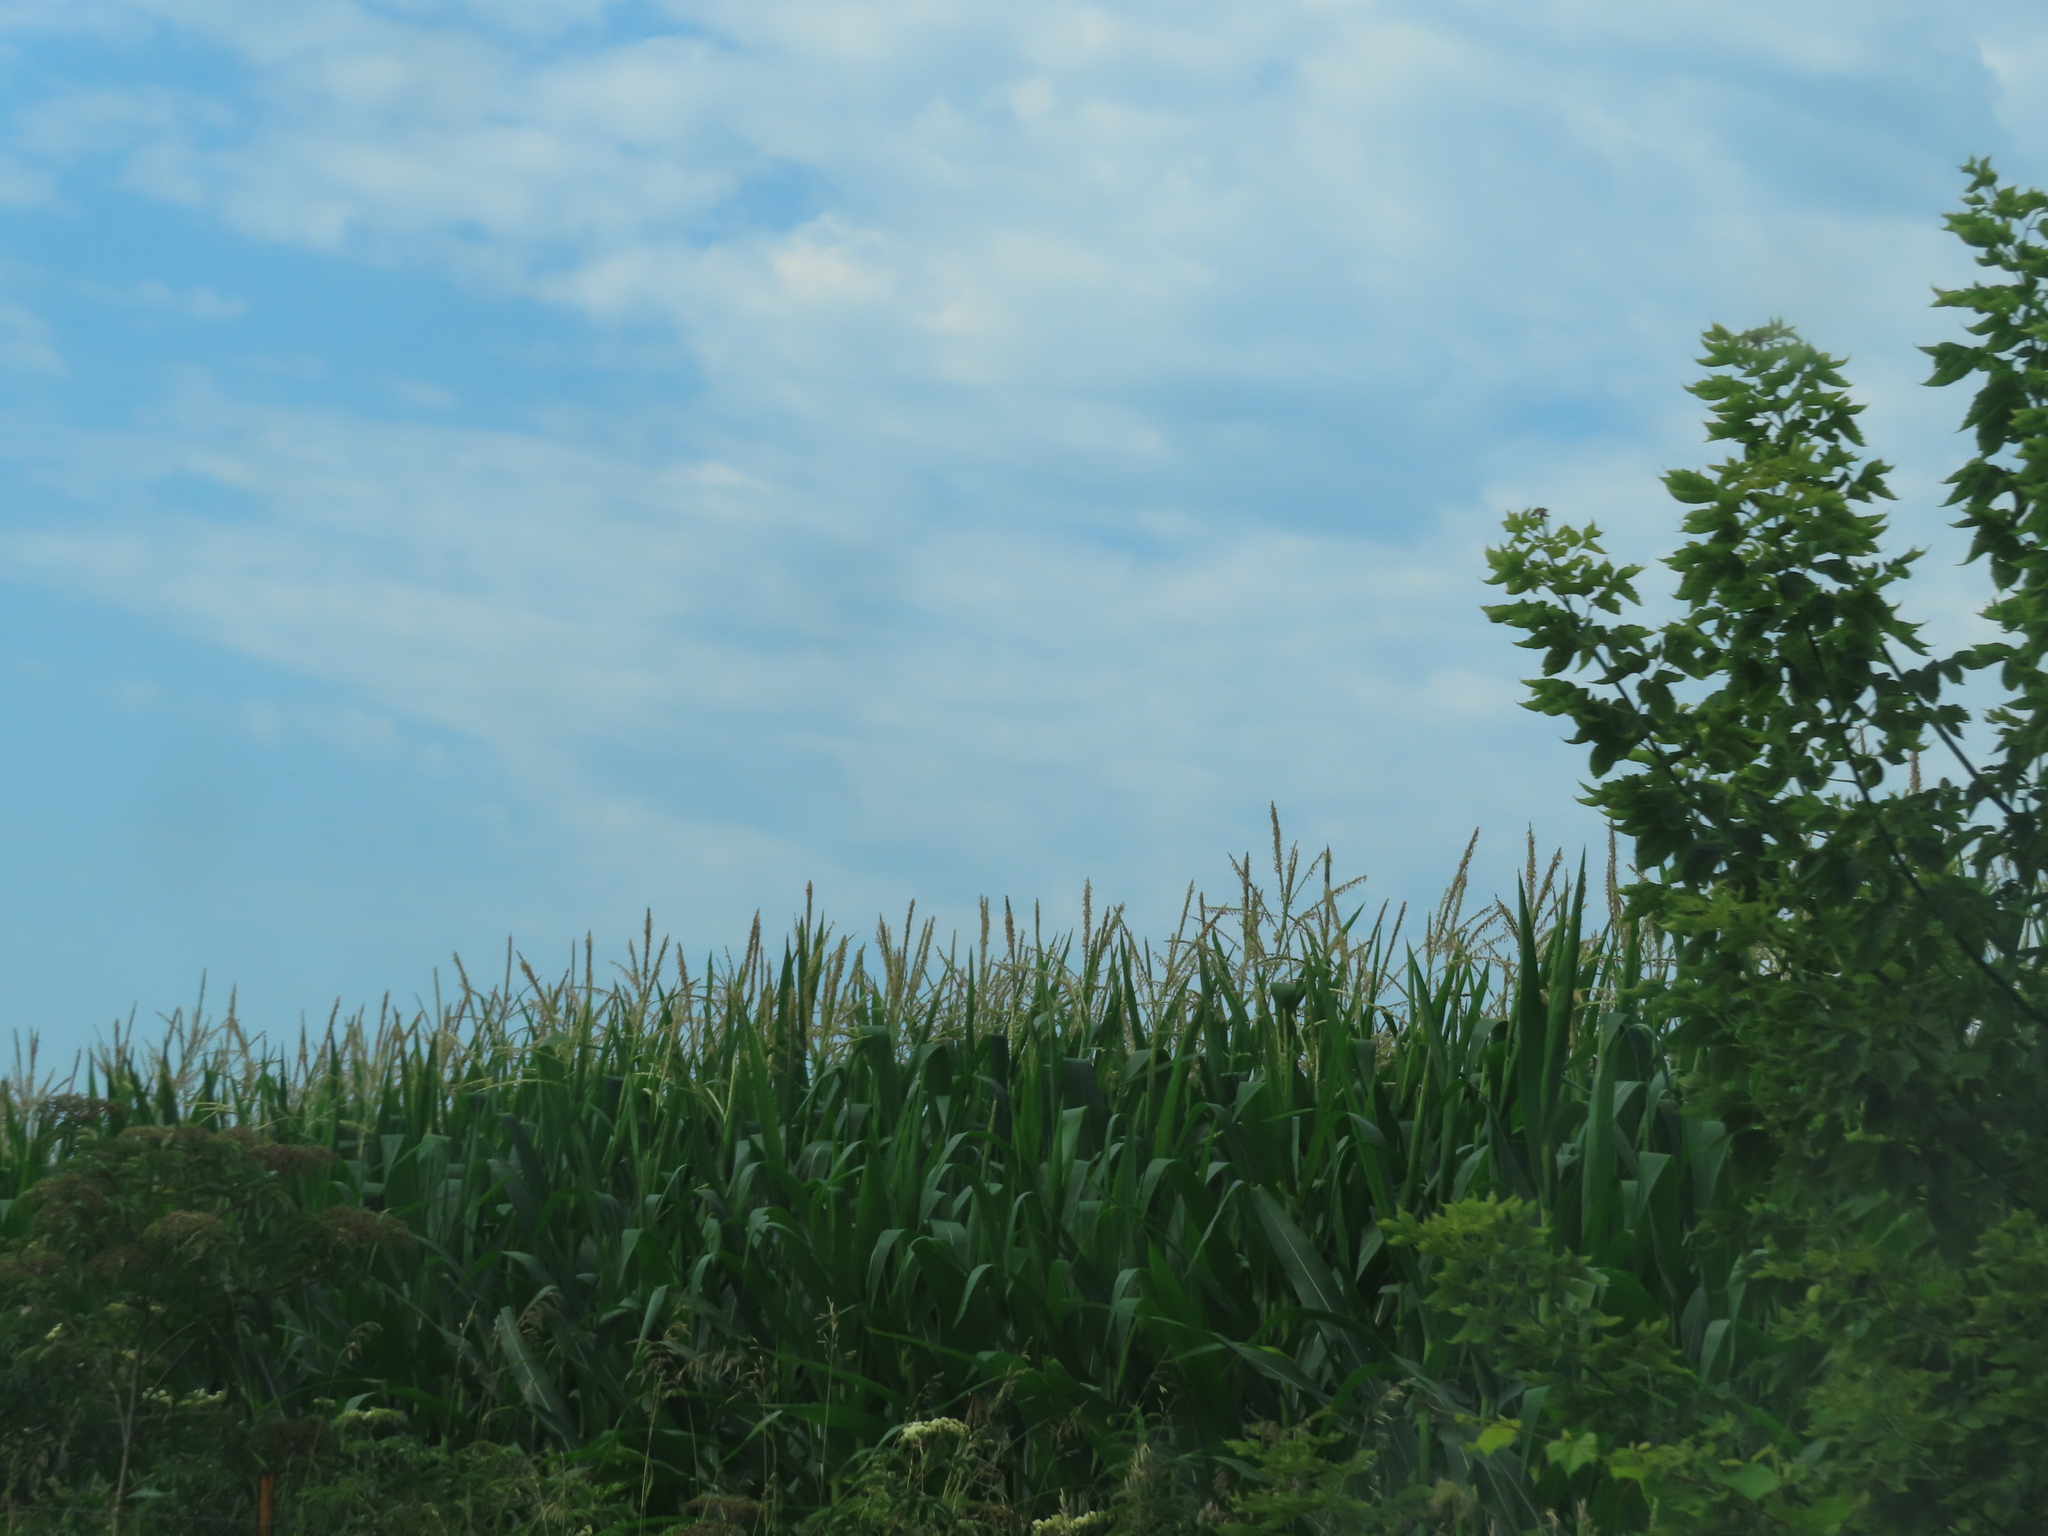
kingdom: Plantae
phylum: Tracheophyta
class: Magnoliopsida
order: Sapindales
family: Sapindaceae
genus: Acer
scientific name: Acer negundo
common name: Ashleaf maple
